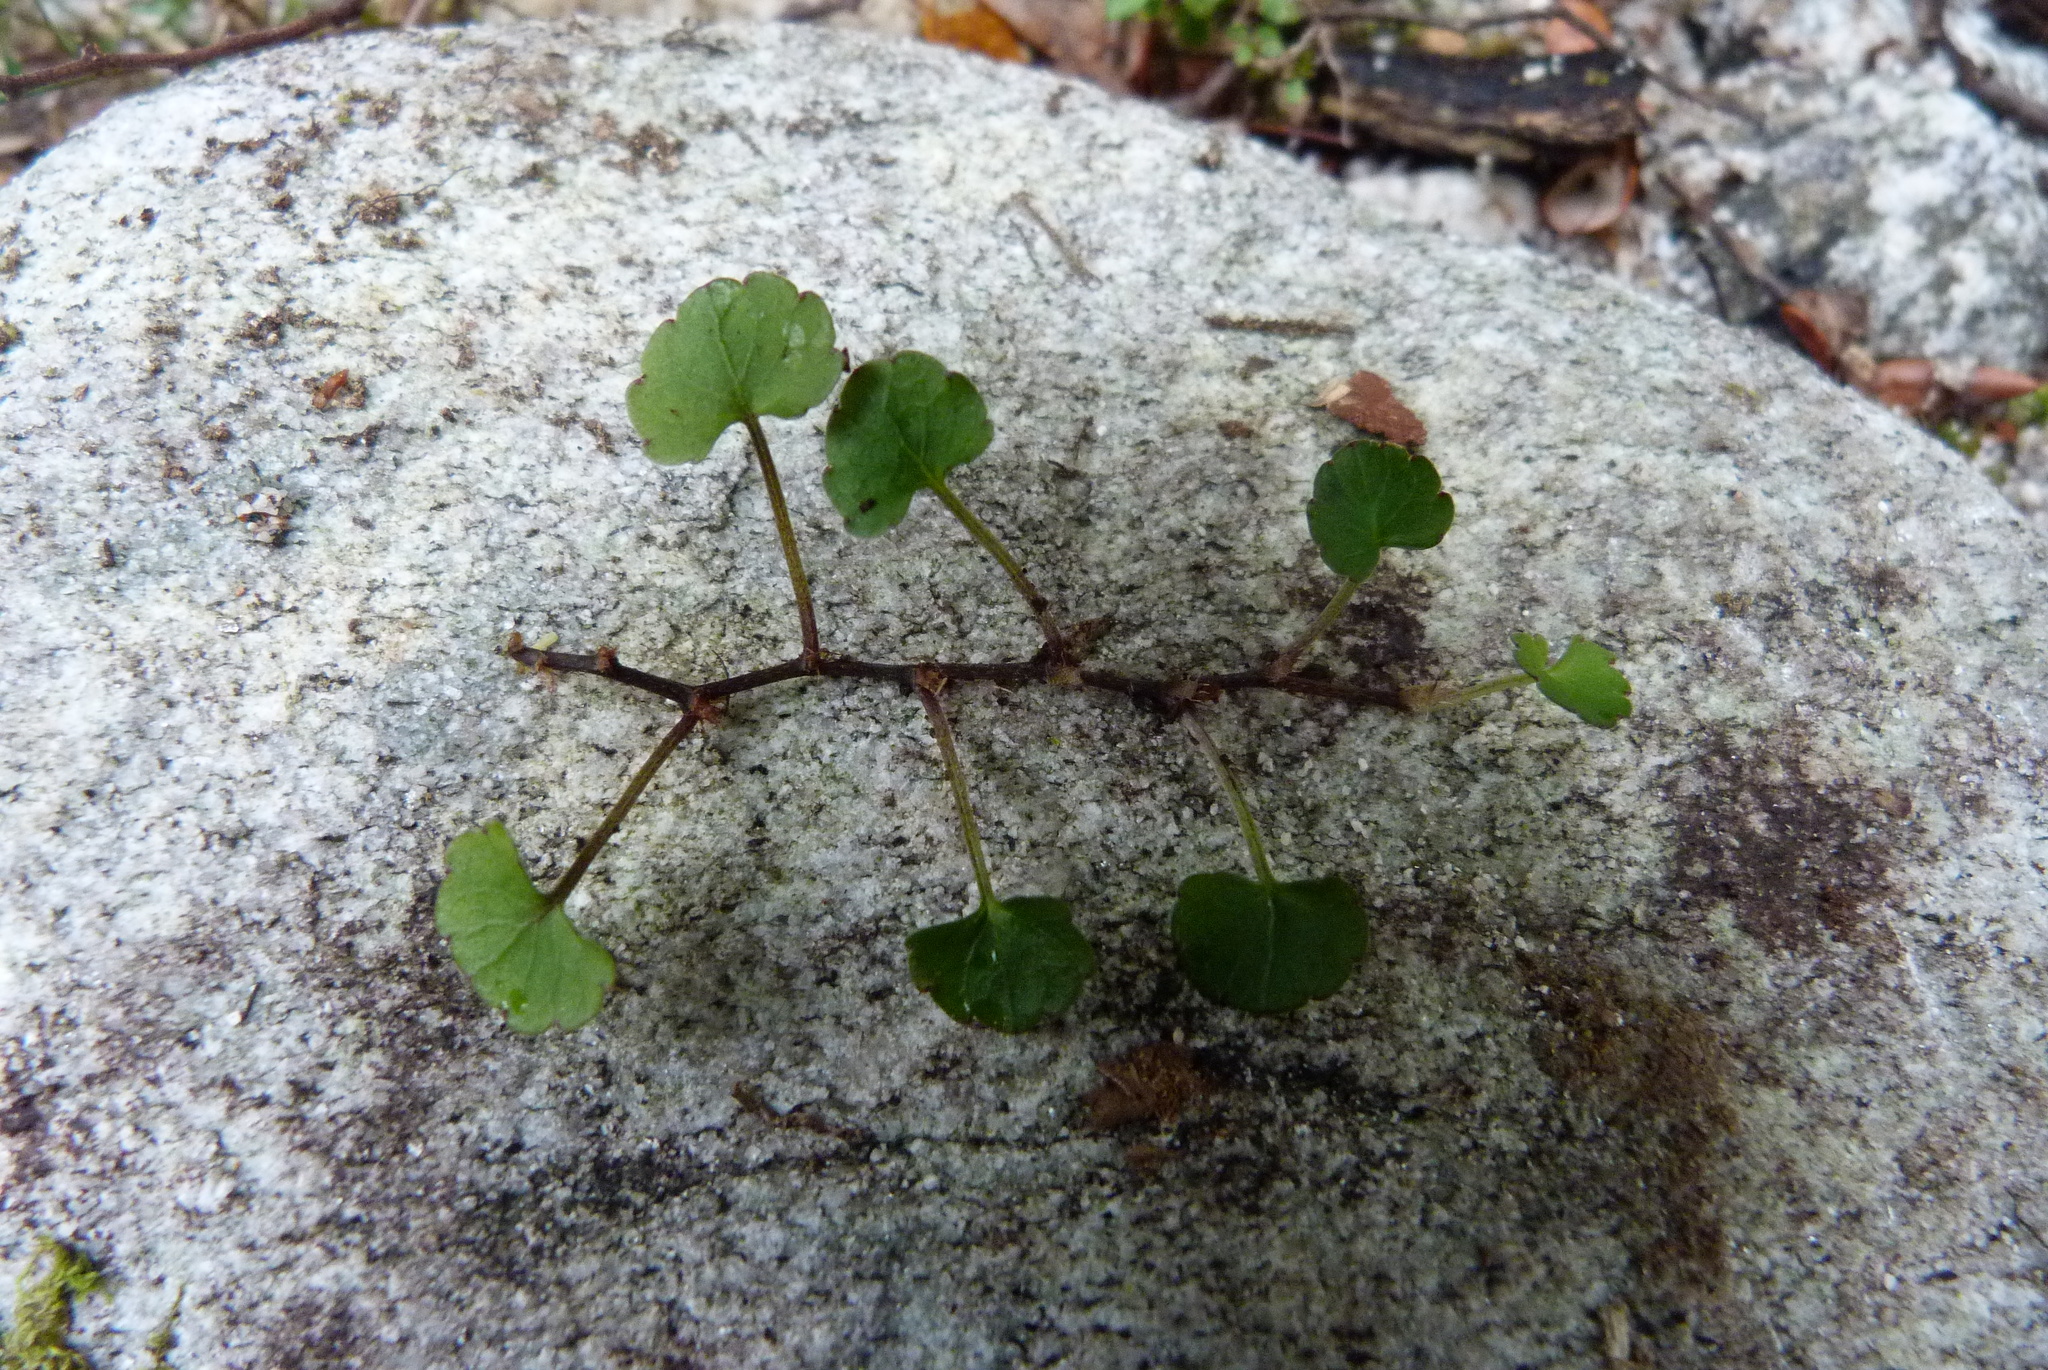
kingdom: Plantae
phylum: Tracheophyta
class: Magnoliopsida
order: Malpighiales
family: Violaceae
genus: Viola
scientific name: Viola filicaulis
